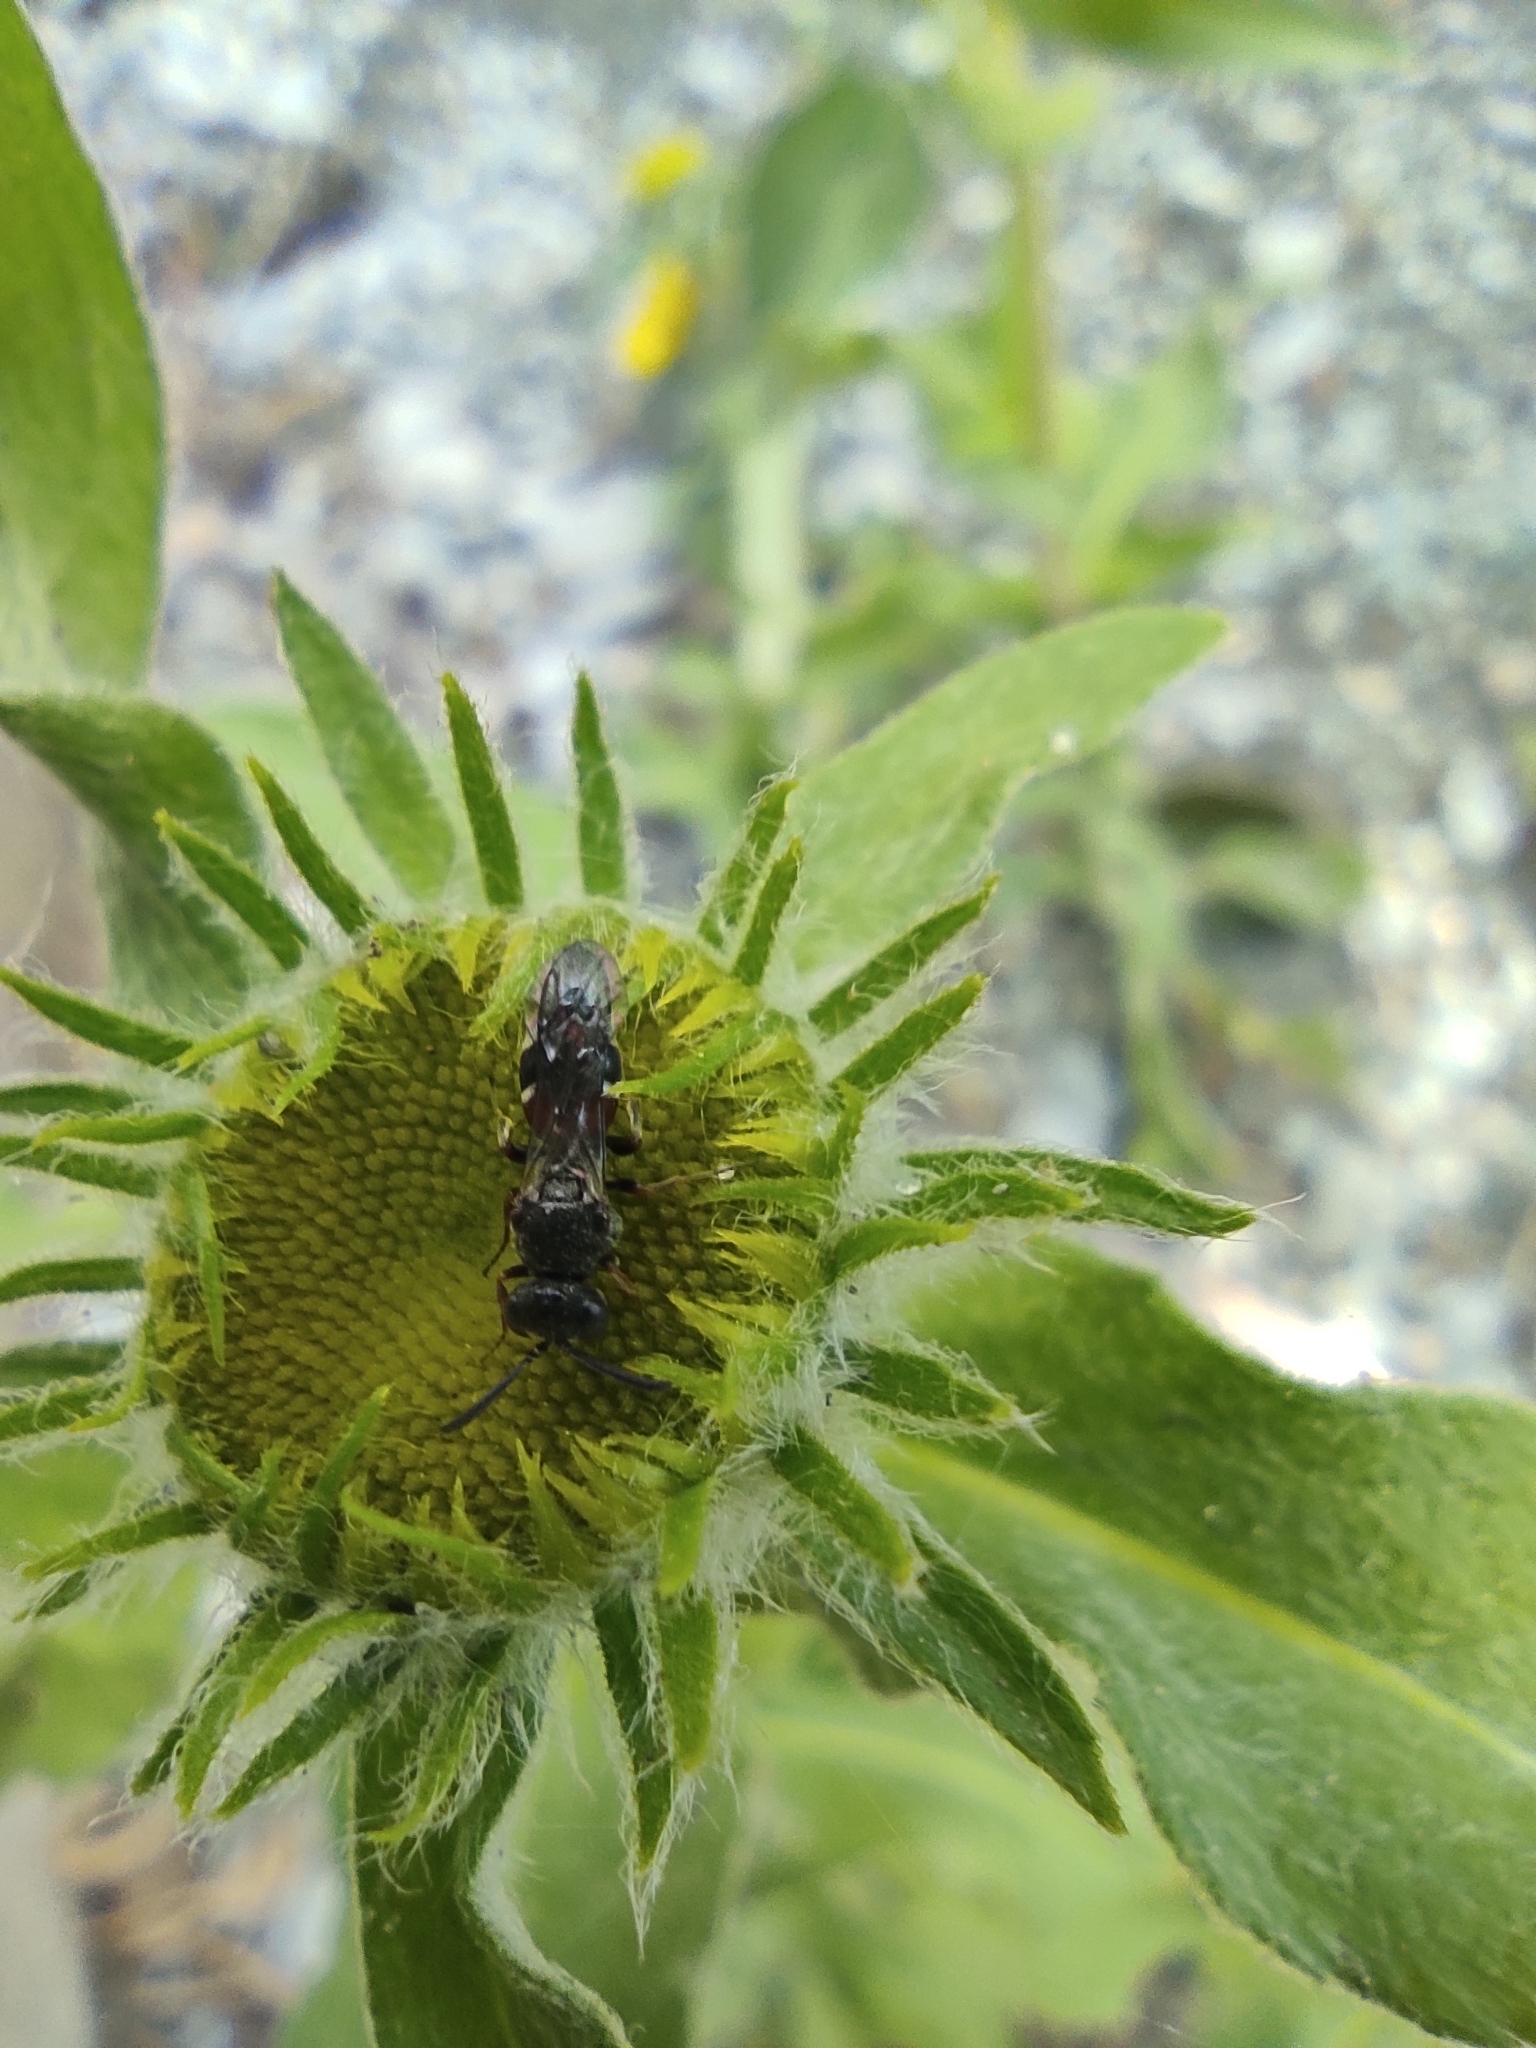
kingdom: Plantae
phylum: Tracheophyta
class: Magnoliopsida
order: Asterales
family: Asteraceae
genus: Pentanema
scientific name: Pentanema britannicum
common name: British elecampane
